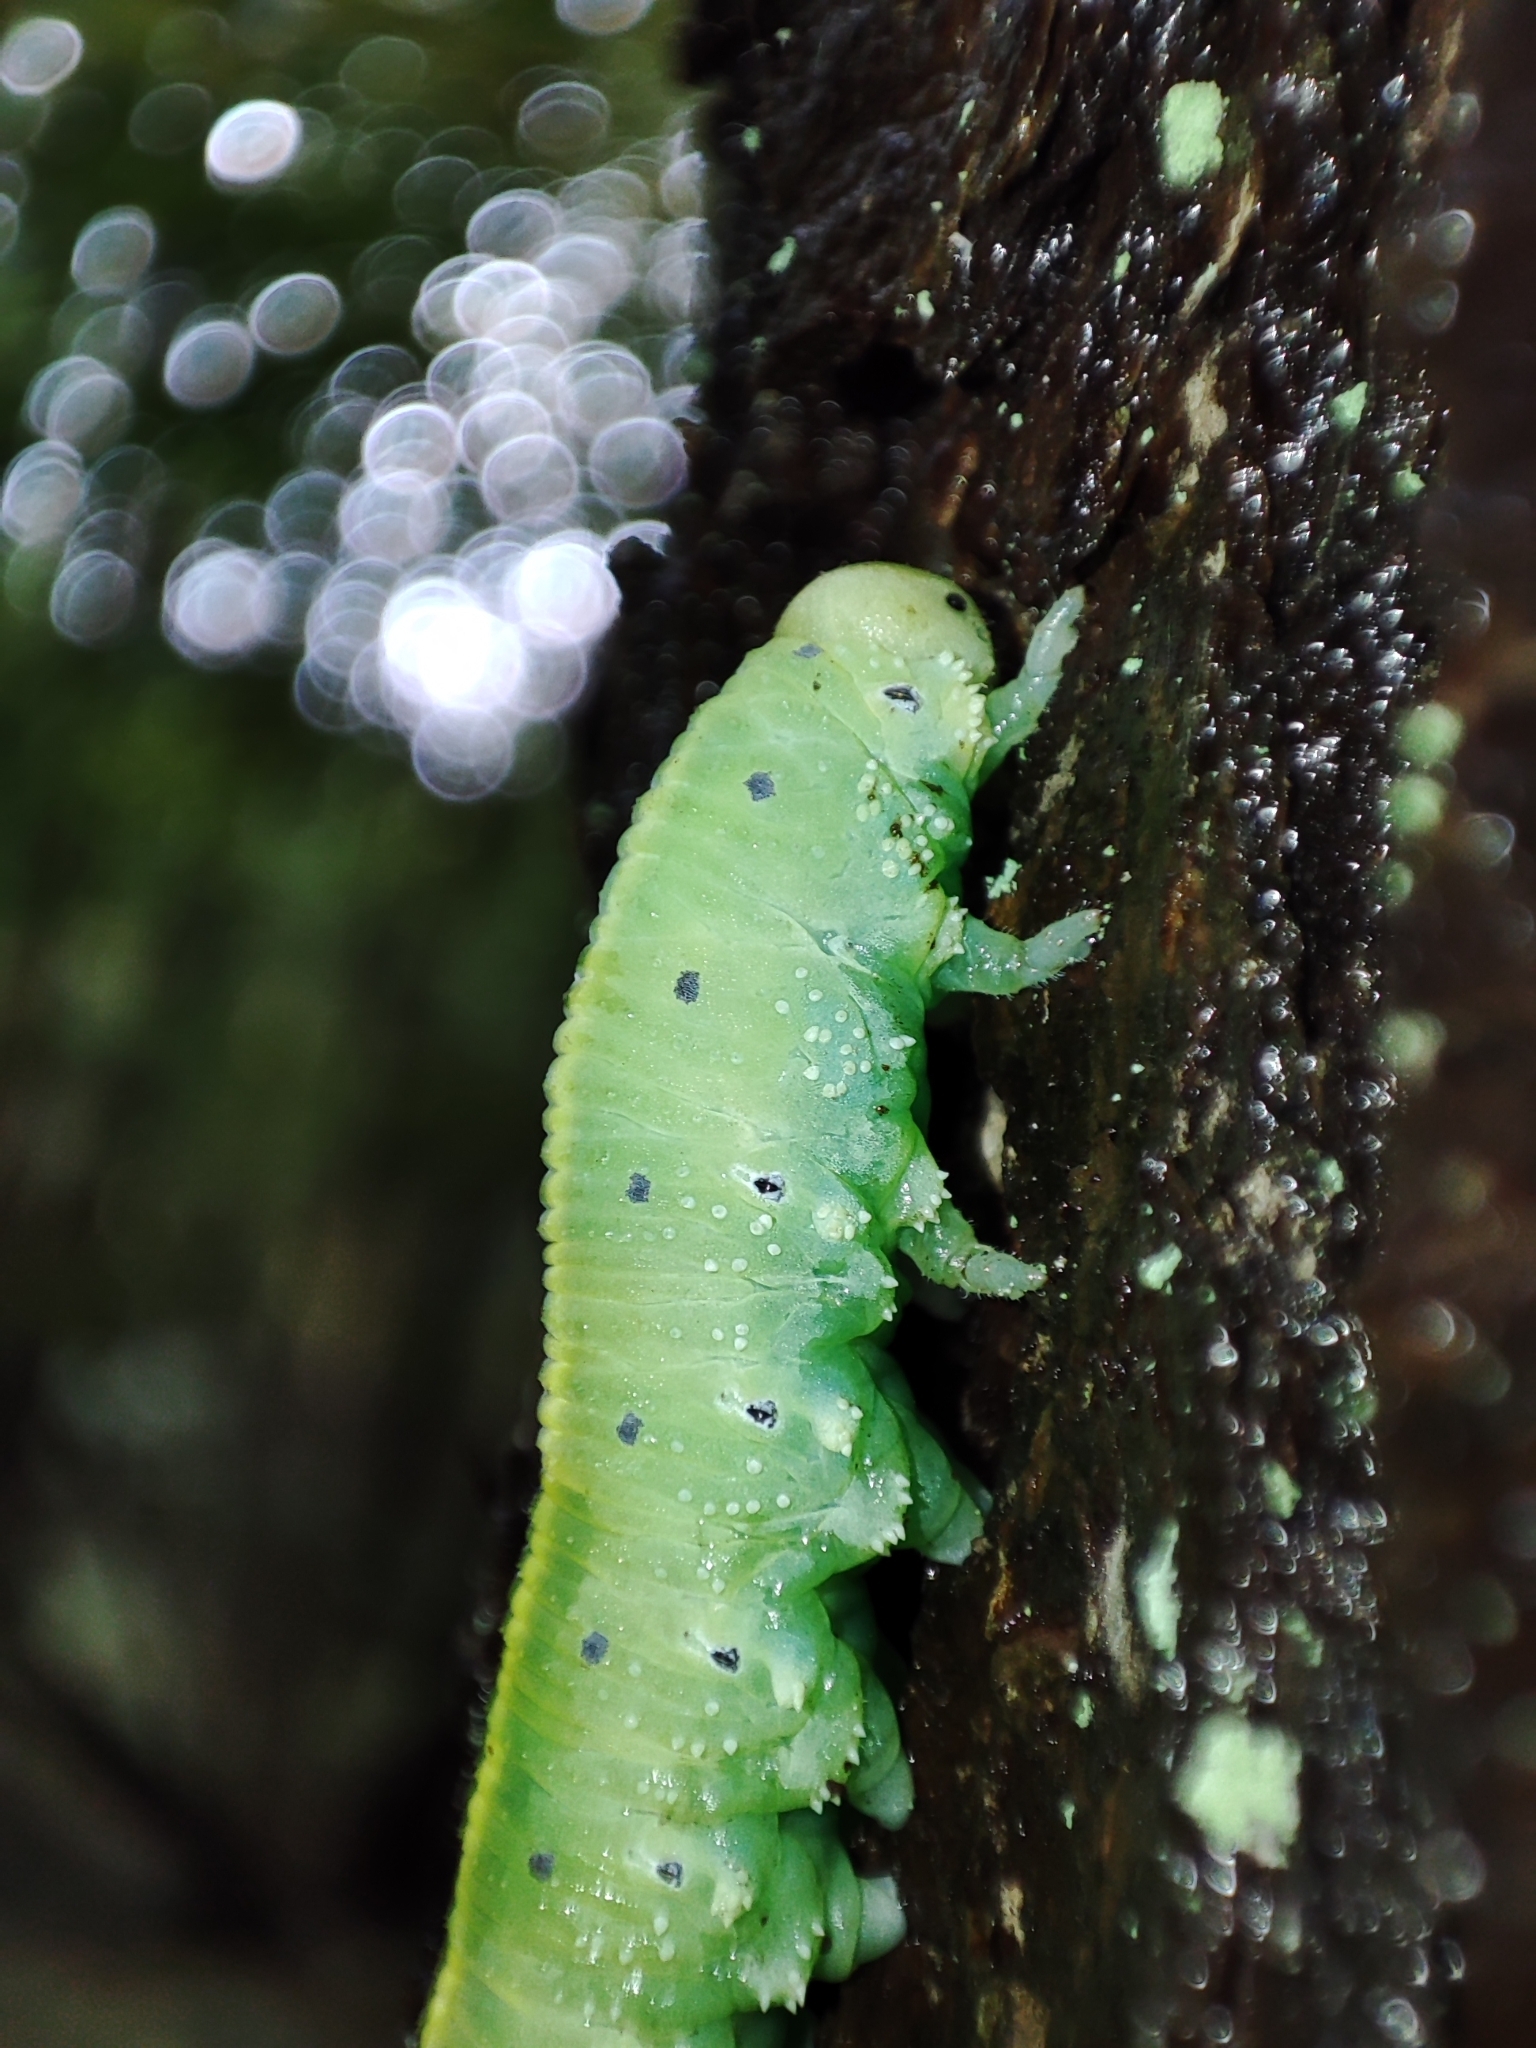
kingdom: Animalia
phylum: Arthropoda
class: Insecta
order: Hymenoptera
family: Cimbicidae
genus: Cimbex
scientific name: Cimbex connatus
